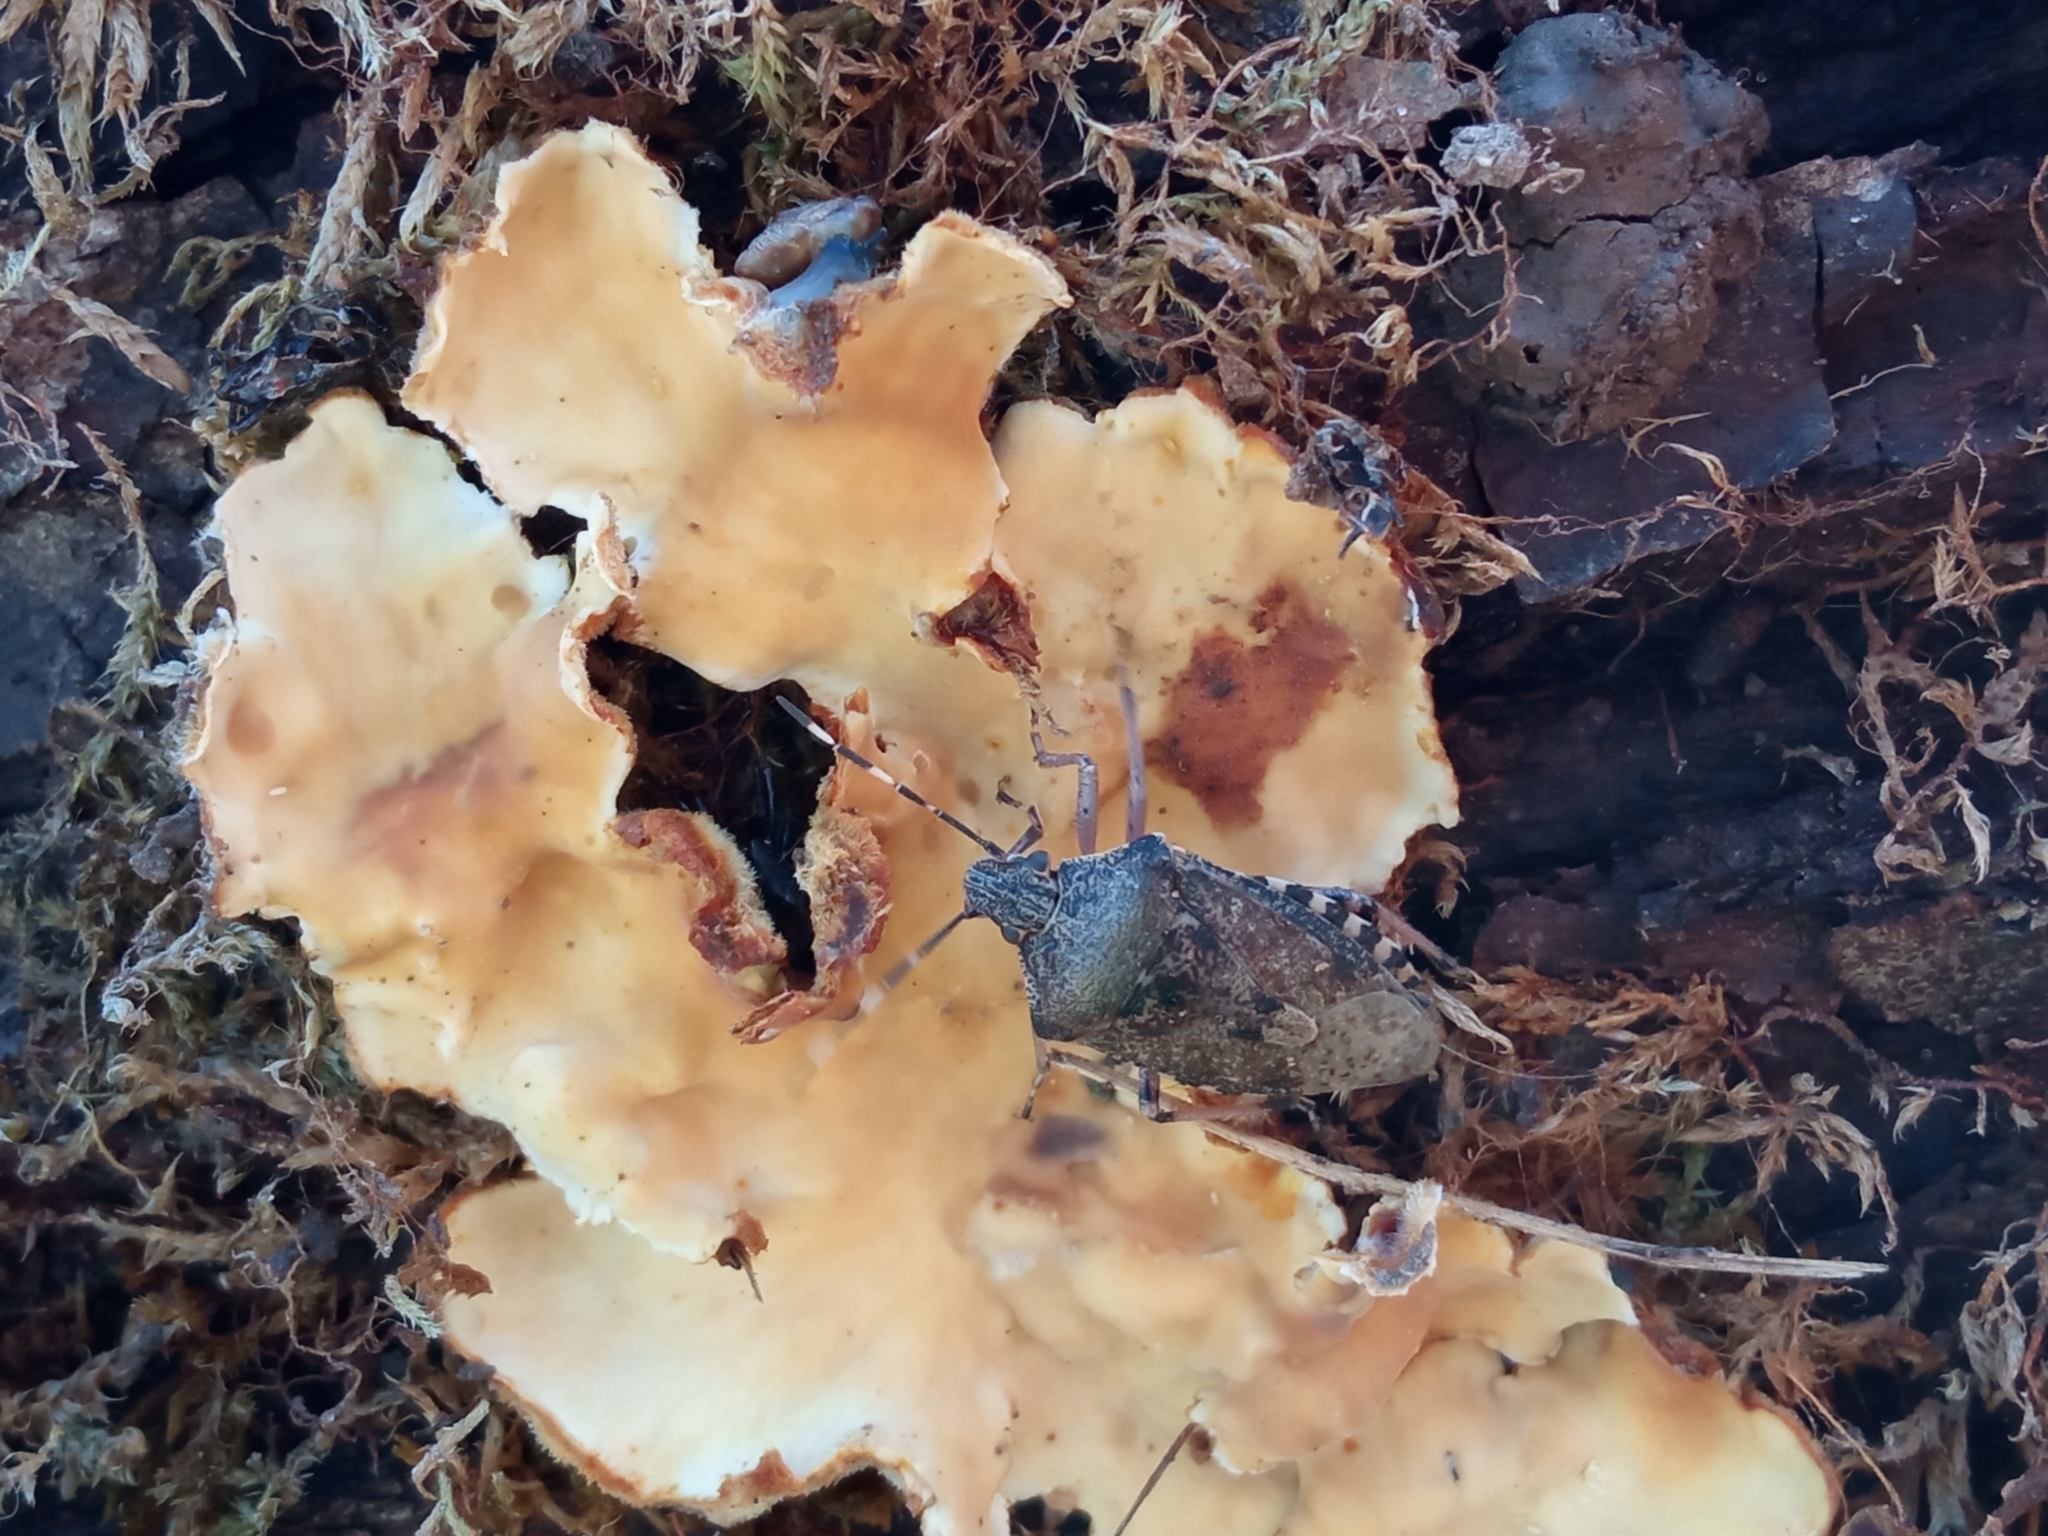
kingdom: Animalia
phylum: Arthropoda
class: Insecta
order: Hemiptera
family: Pentatomidae
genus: Rhaphigaster
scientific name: Rhaphigaster nebulosa
